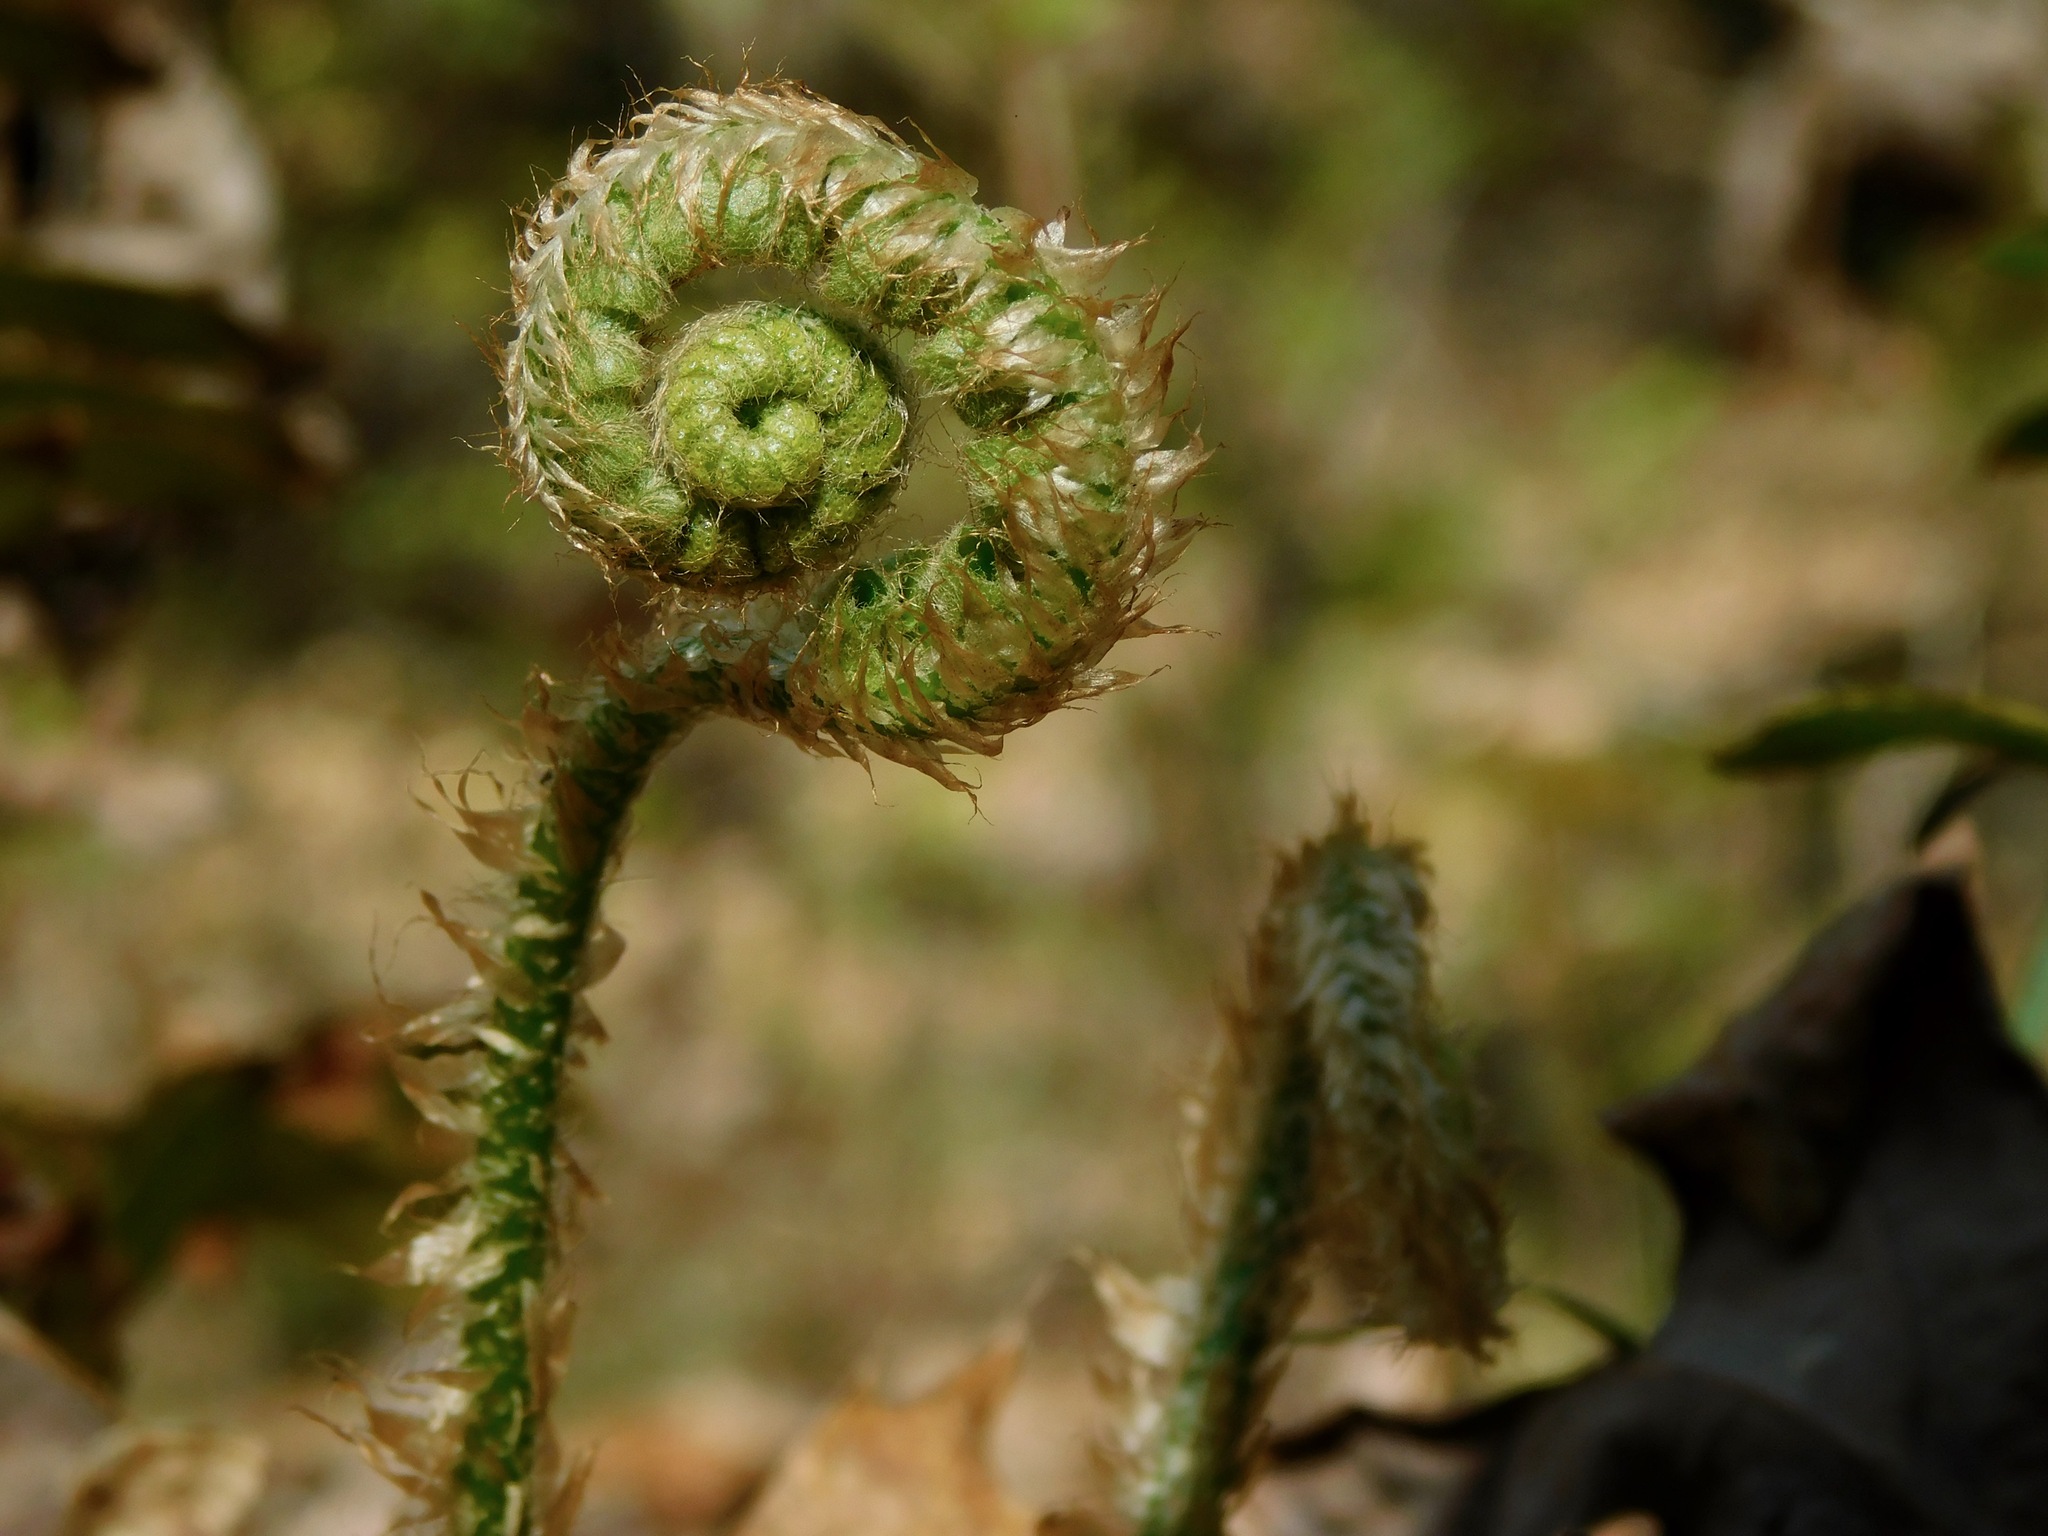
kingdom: Plantae
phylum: Tracheophyta
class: Polypodiopsida
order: Polypodiales
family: Dryopteridaceae
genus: Polystichum
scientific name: Polystichum acrostichoides
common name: Christmas fern
